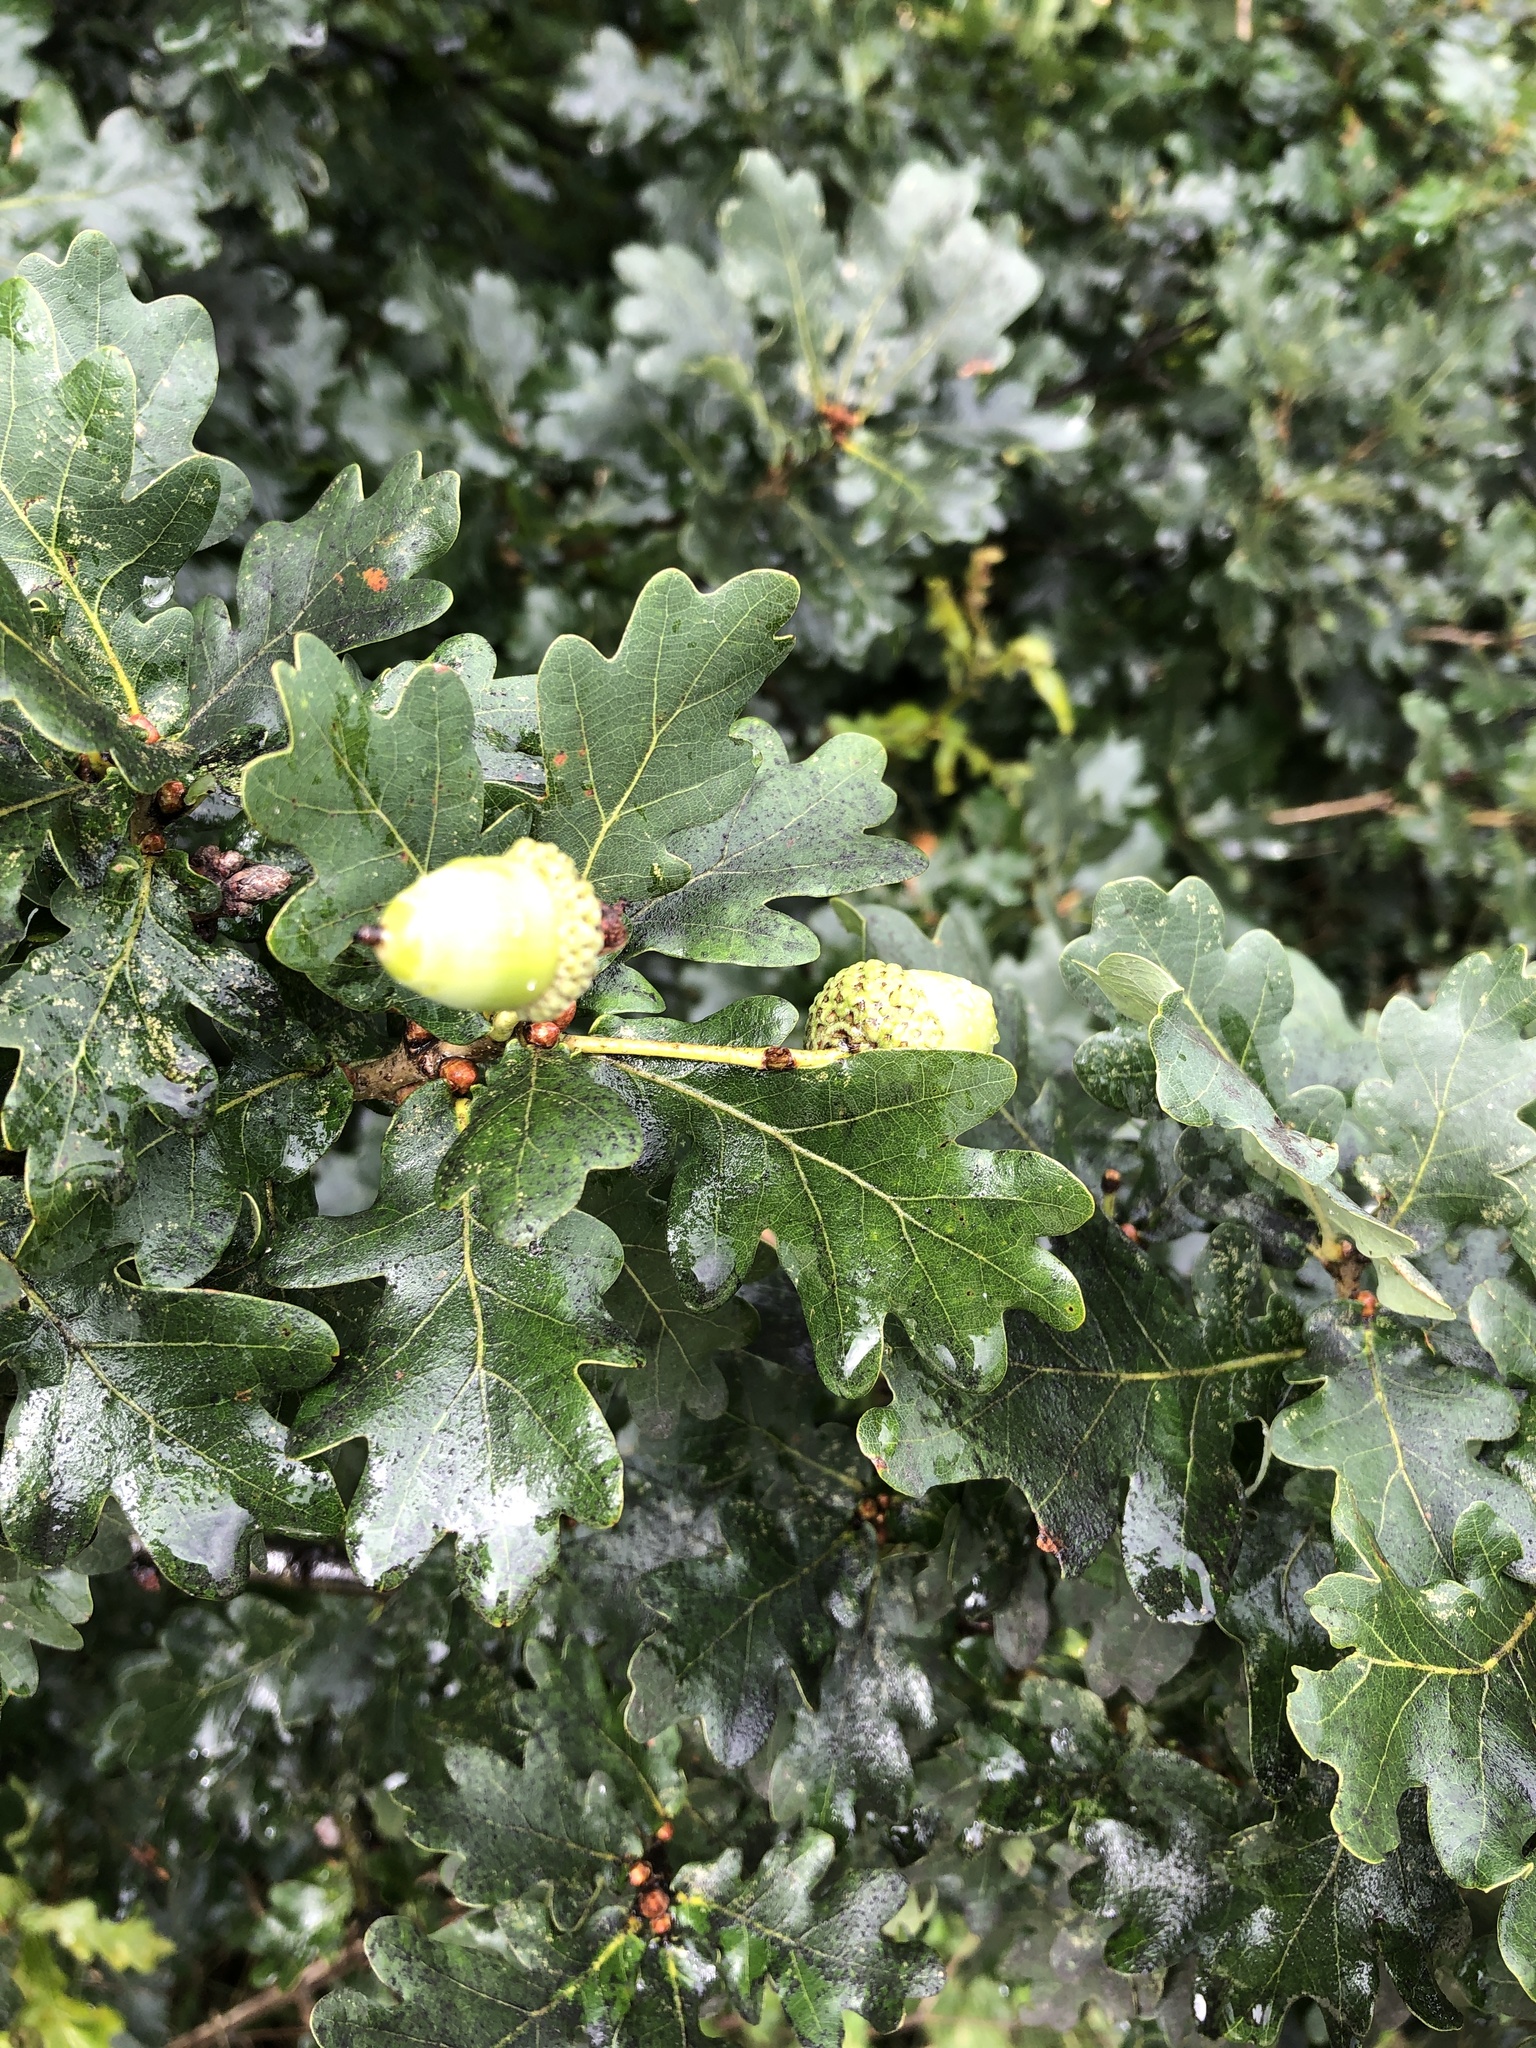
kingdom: Plantae
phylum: Tracheophyta
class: Magnoliopsida
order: Fagales
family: Fagaceae
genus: Quercus
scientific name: Quercus robur
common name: Pedunculate oak
